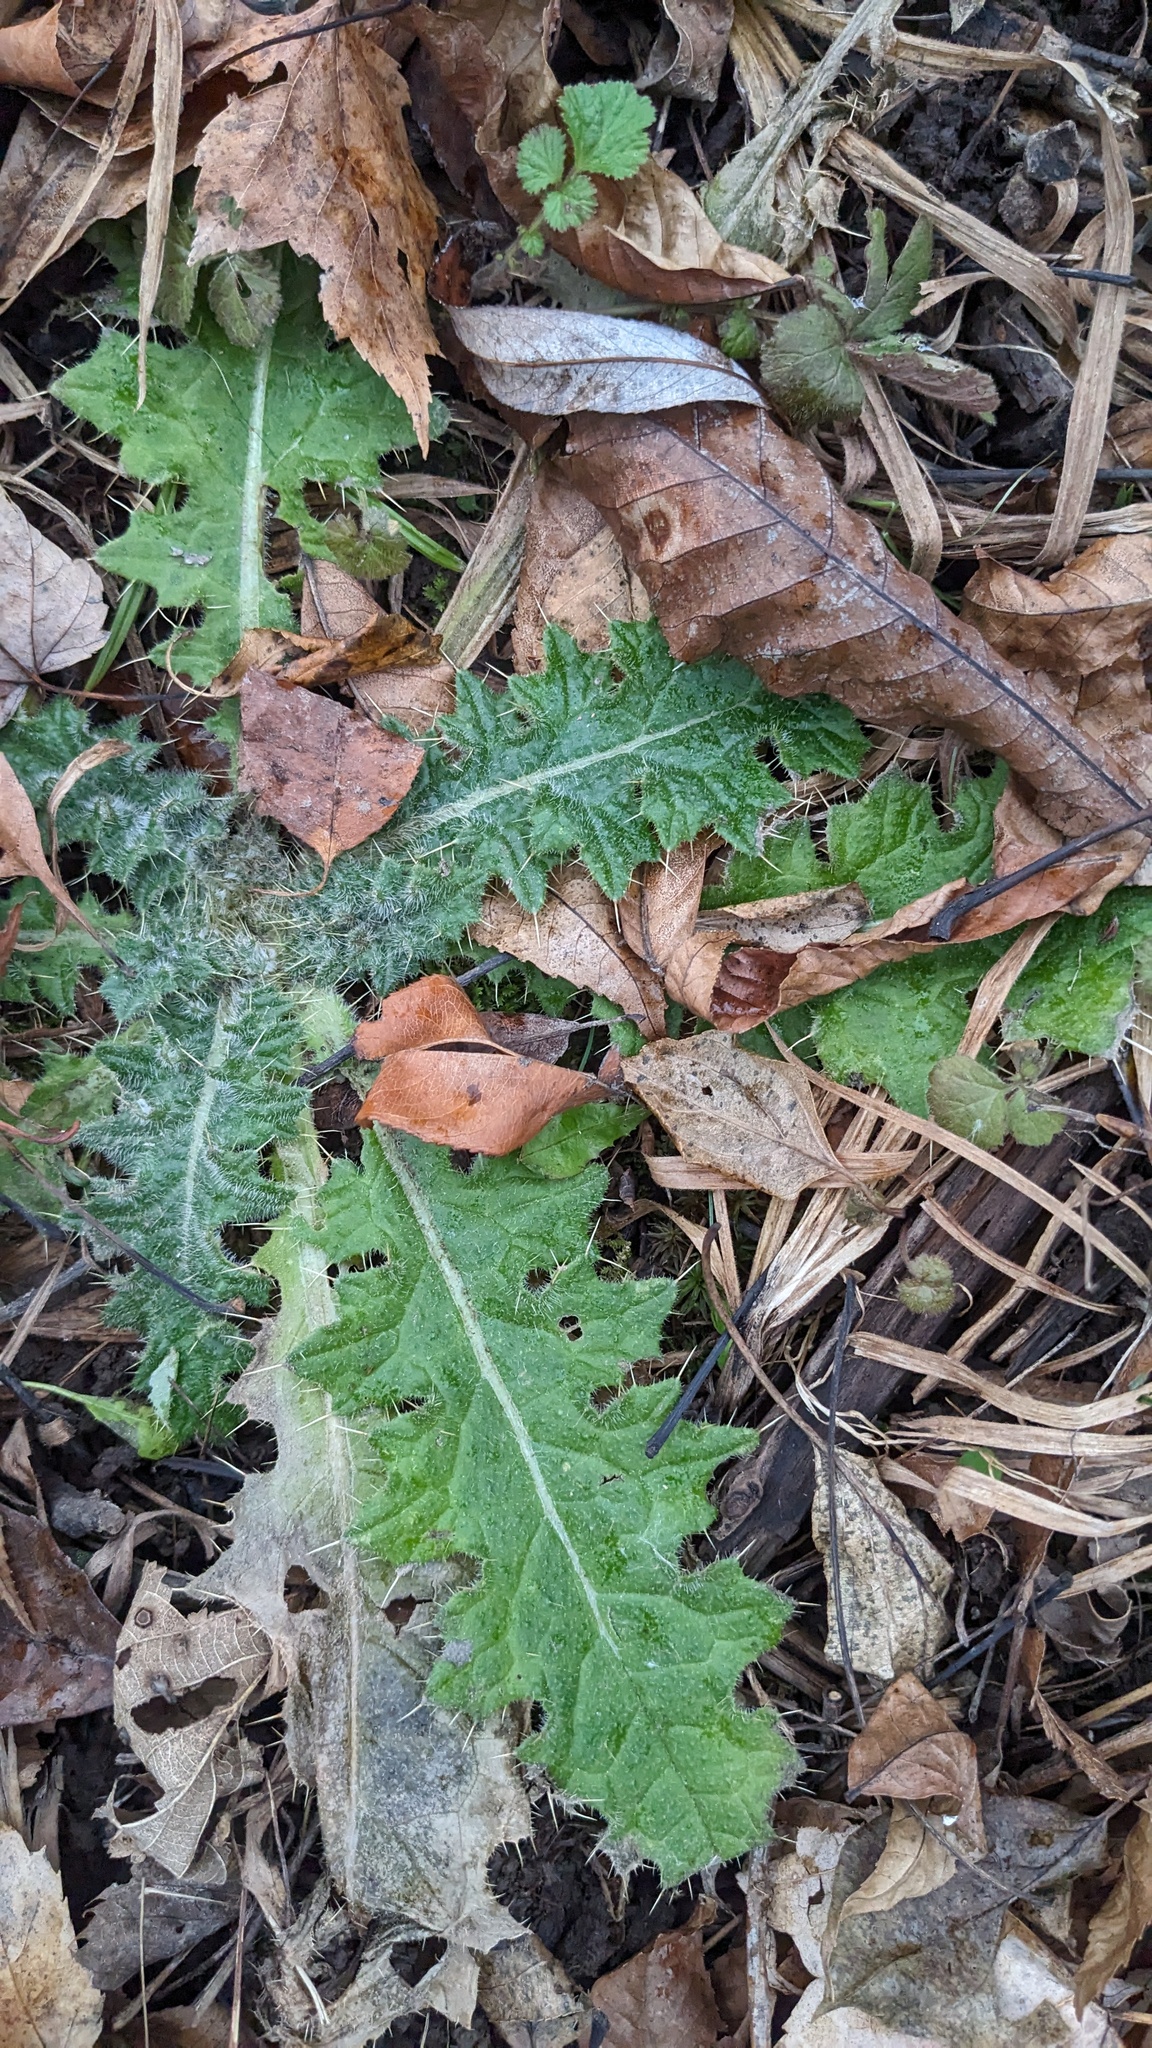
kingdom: Plantae
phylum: Tracheophyta
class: Magnoliopsida
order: Asterales
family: Asteraceae
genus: Cirsium
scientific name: Cirsium vulgare
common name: Bull thistle
